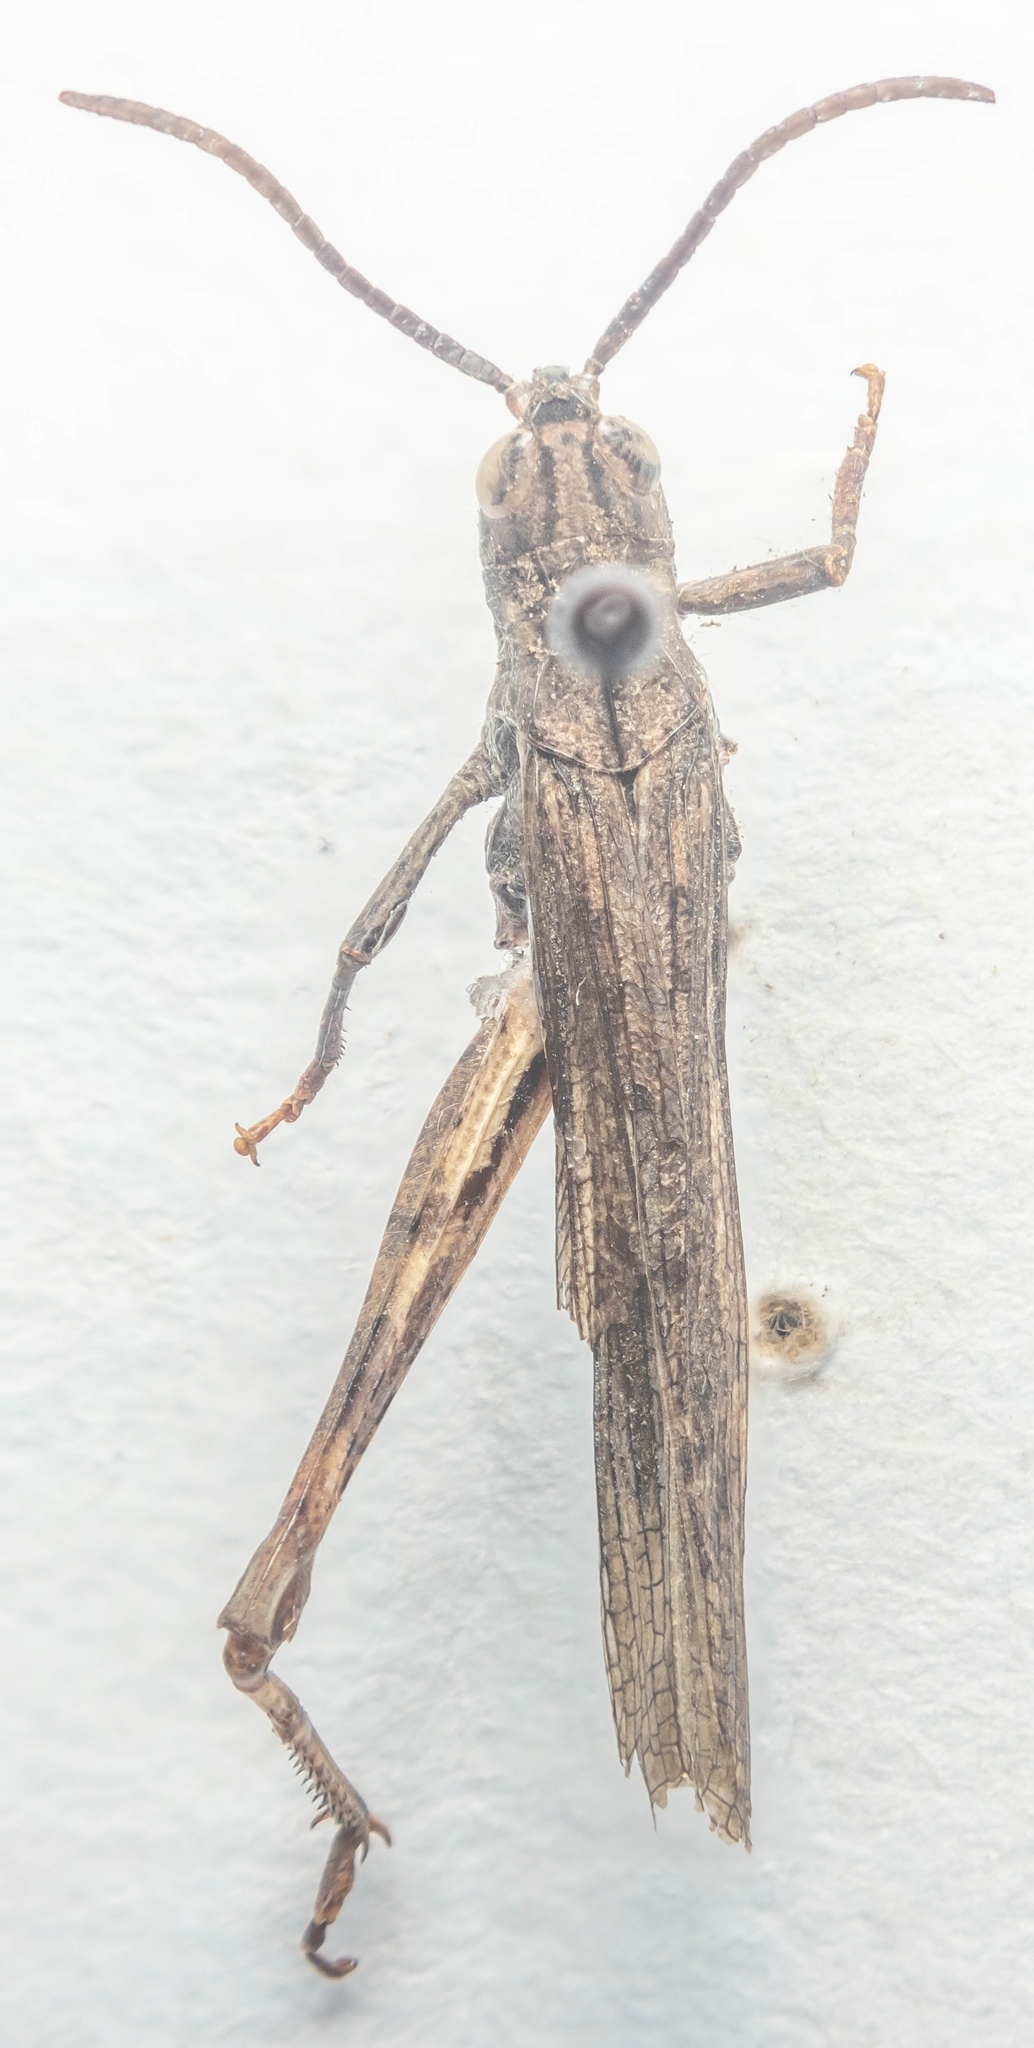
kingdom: Animalia
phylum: Arthropoda
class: Insecta
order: Orthoptera
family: Acrididae
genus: Chorthippus
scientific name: Chorthippus brunneus
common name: Field grasshopper
